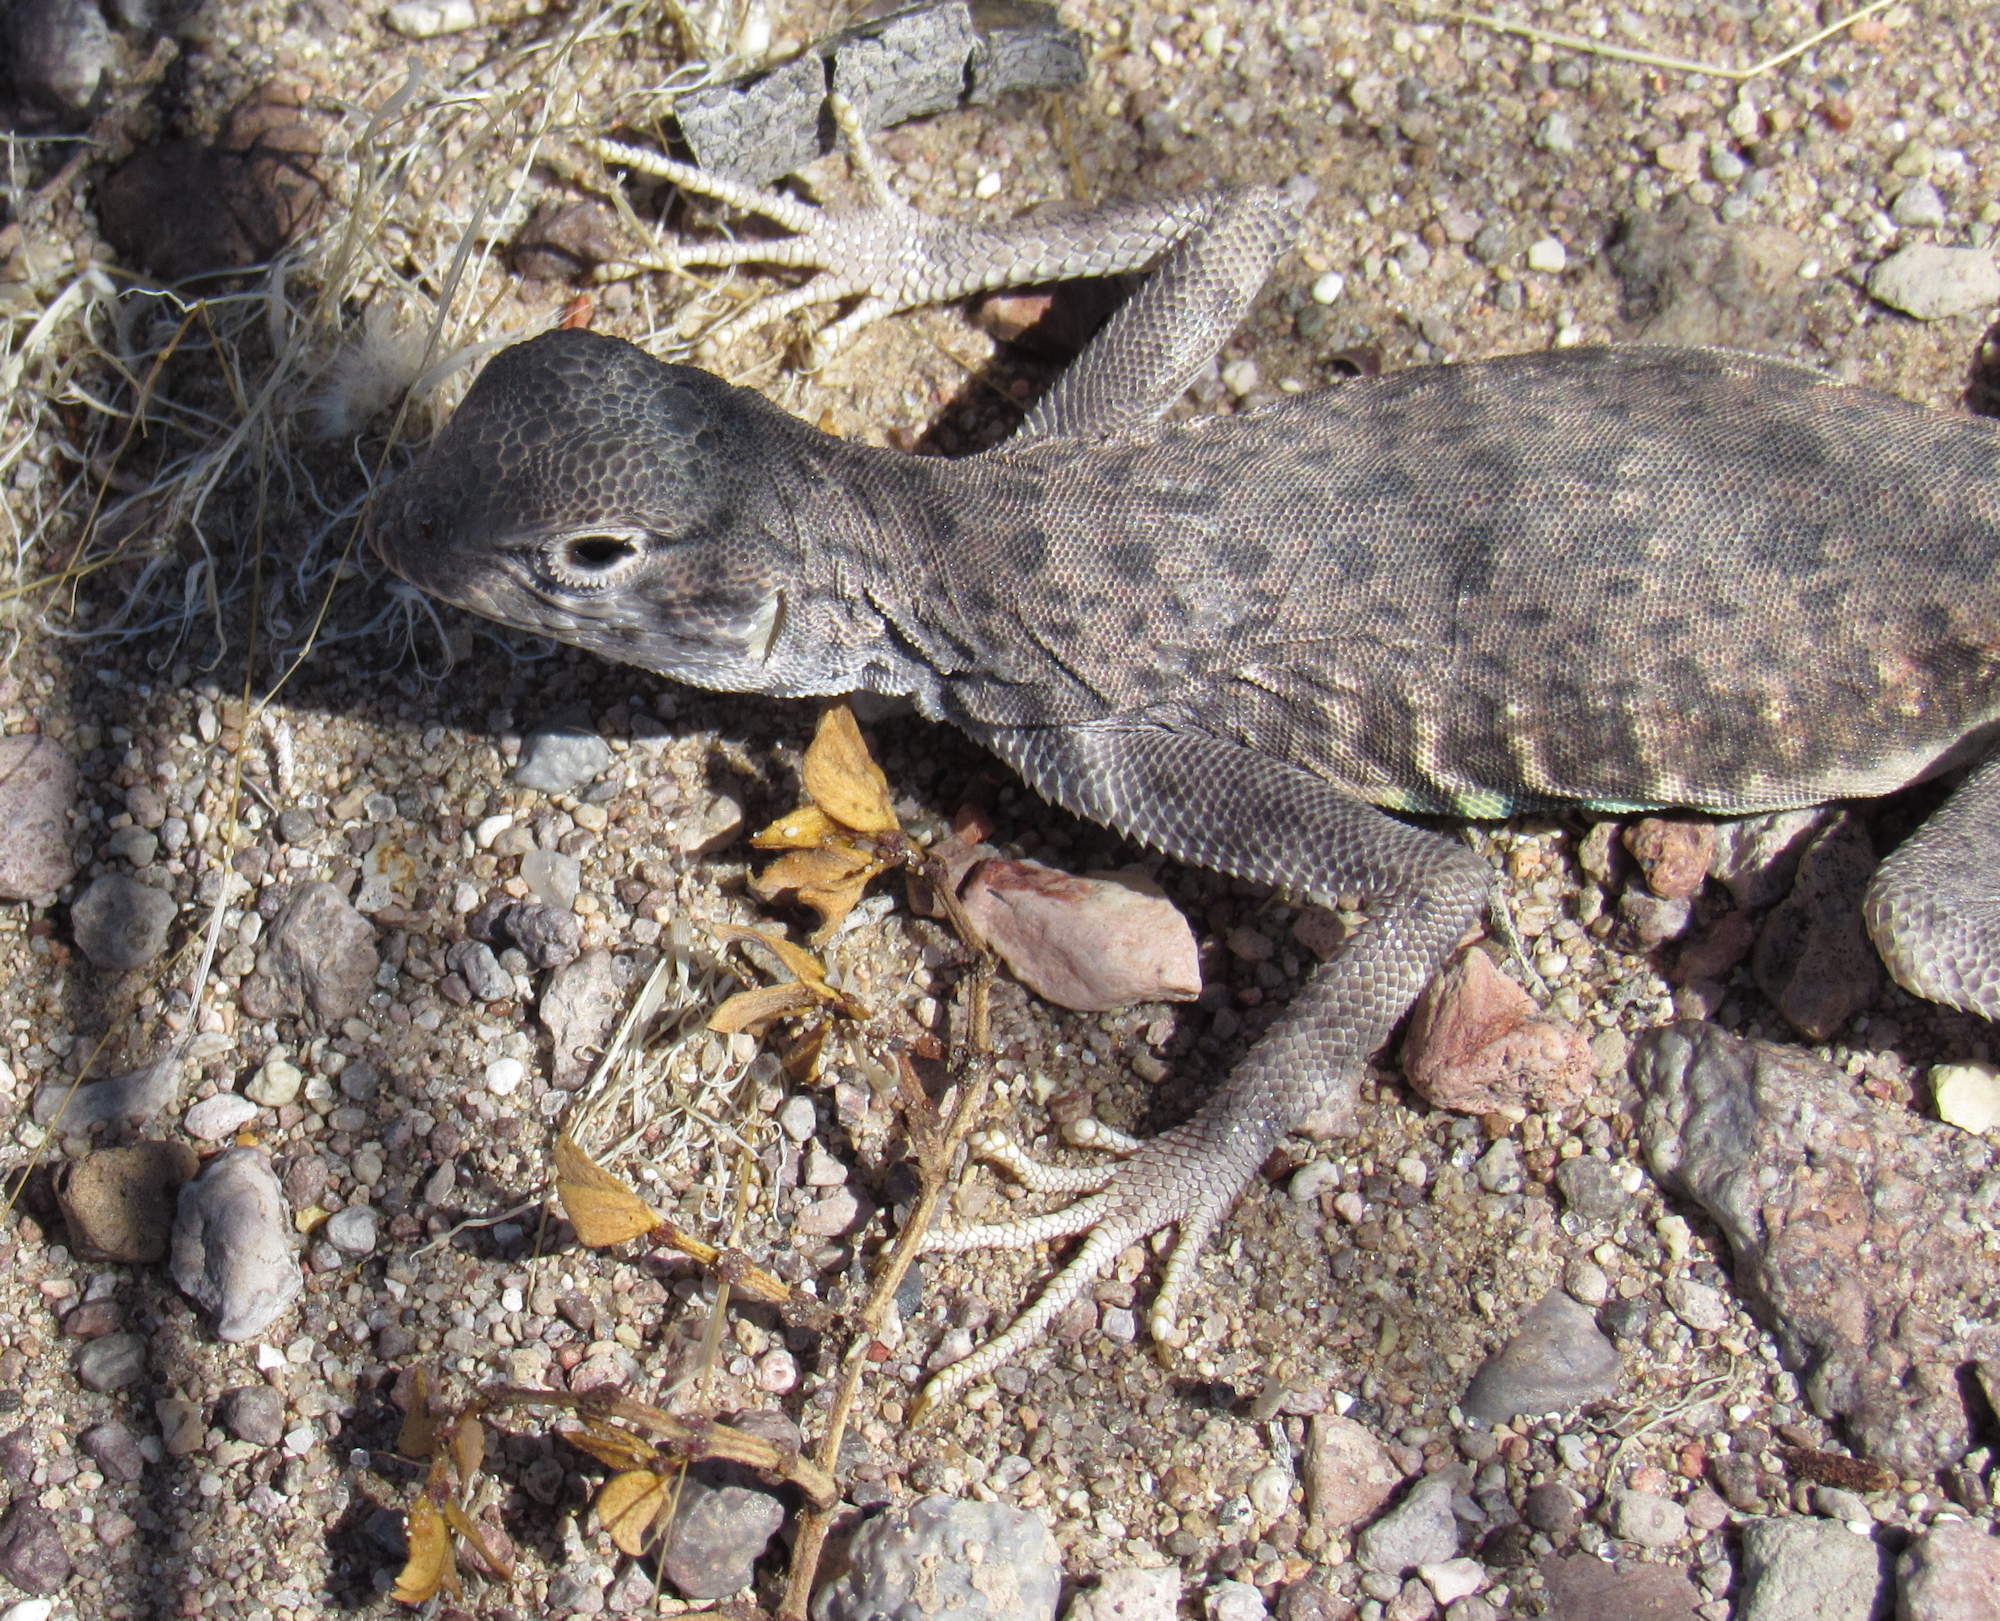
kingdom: Animalia
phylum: Chordata
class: Squamata
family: Phrynosomatidae
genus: Callisaurus
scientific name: Callisaurus draconoides
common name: Zebra-tailed lizard
